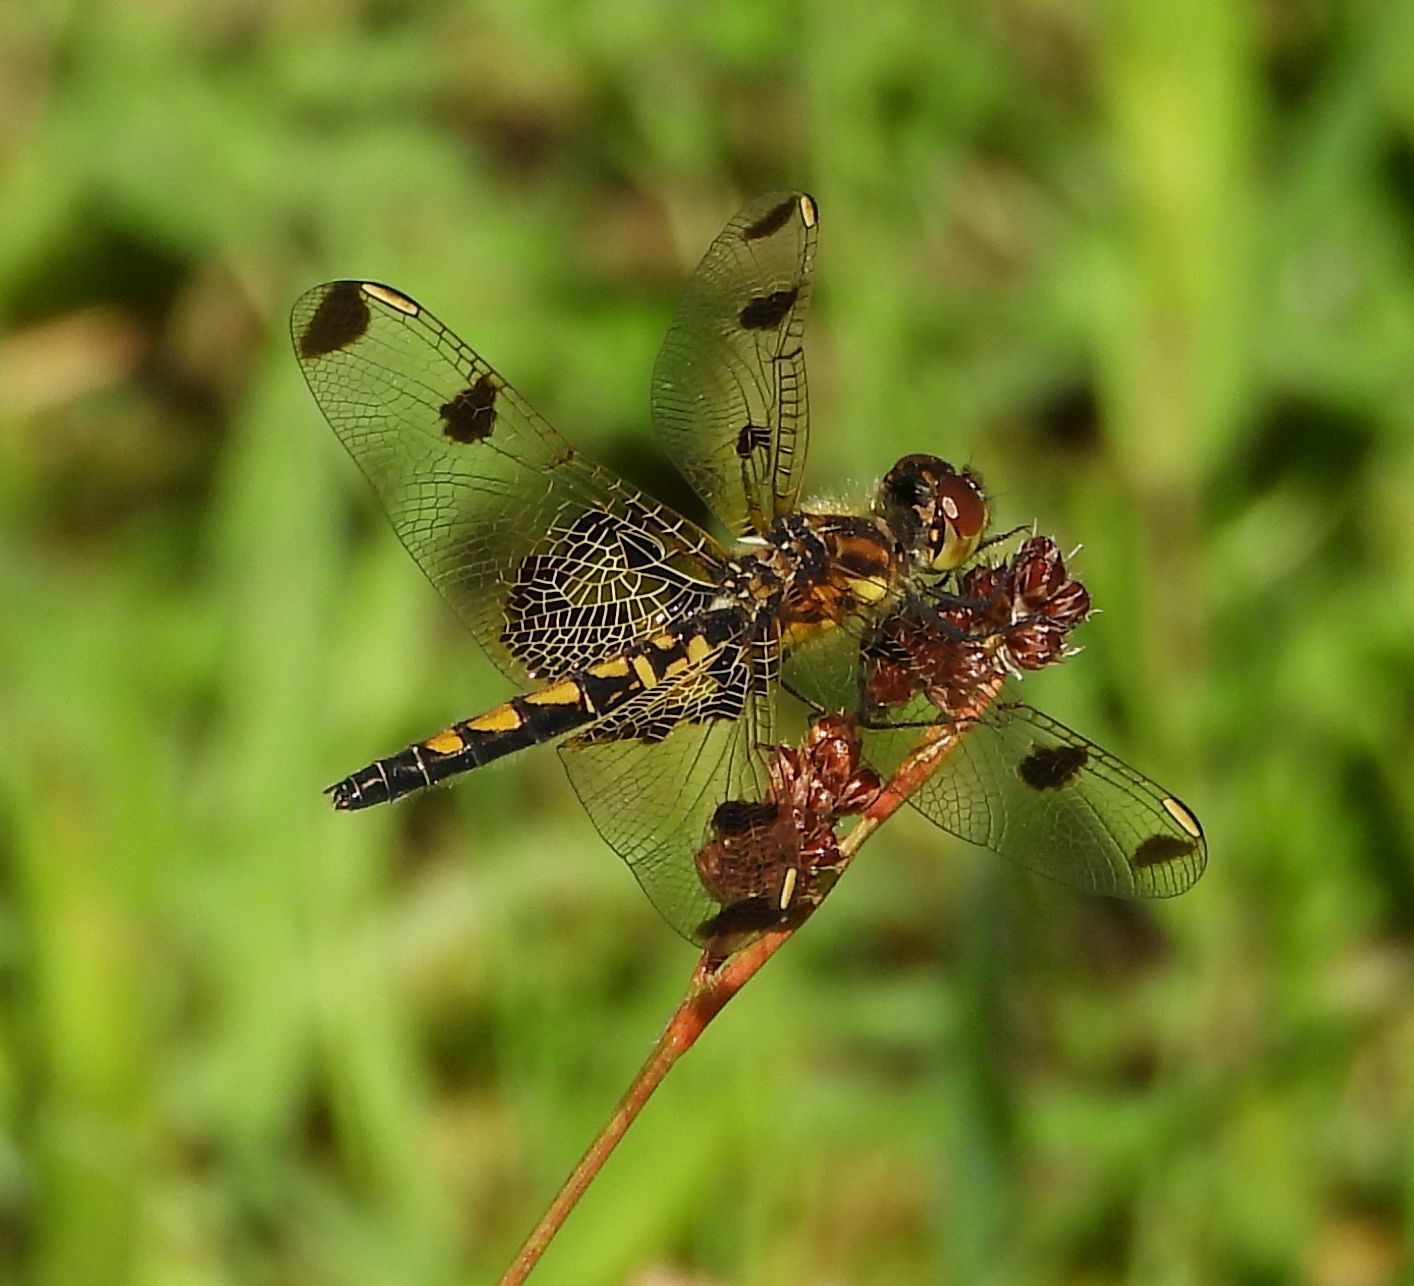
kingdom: Animalia
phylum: Arthropoda
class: Insecta
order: Odonata
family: Libellulidae
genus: Celithemis
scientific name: Celithemis elisa
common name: Calico pennant
